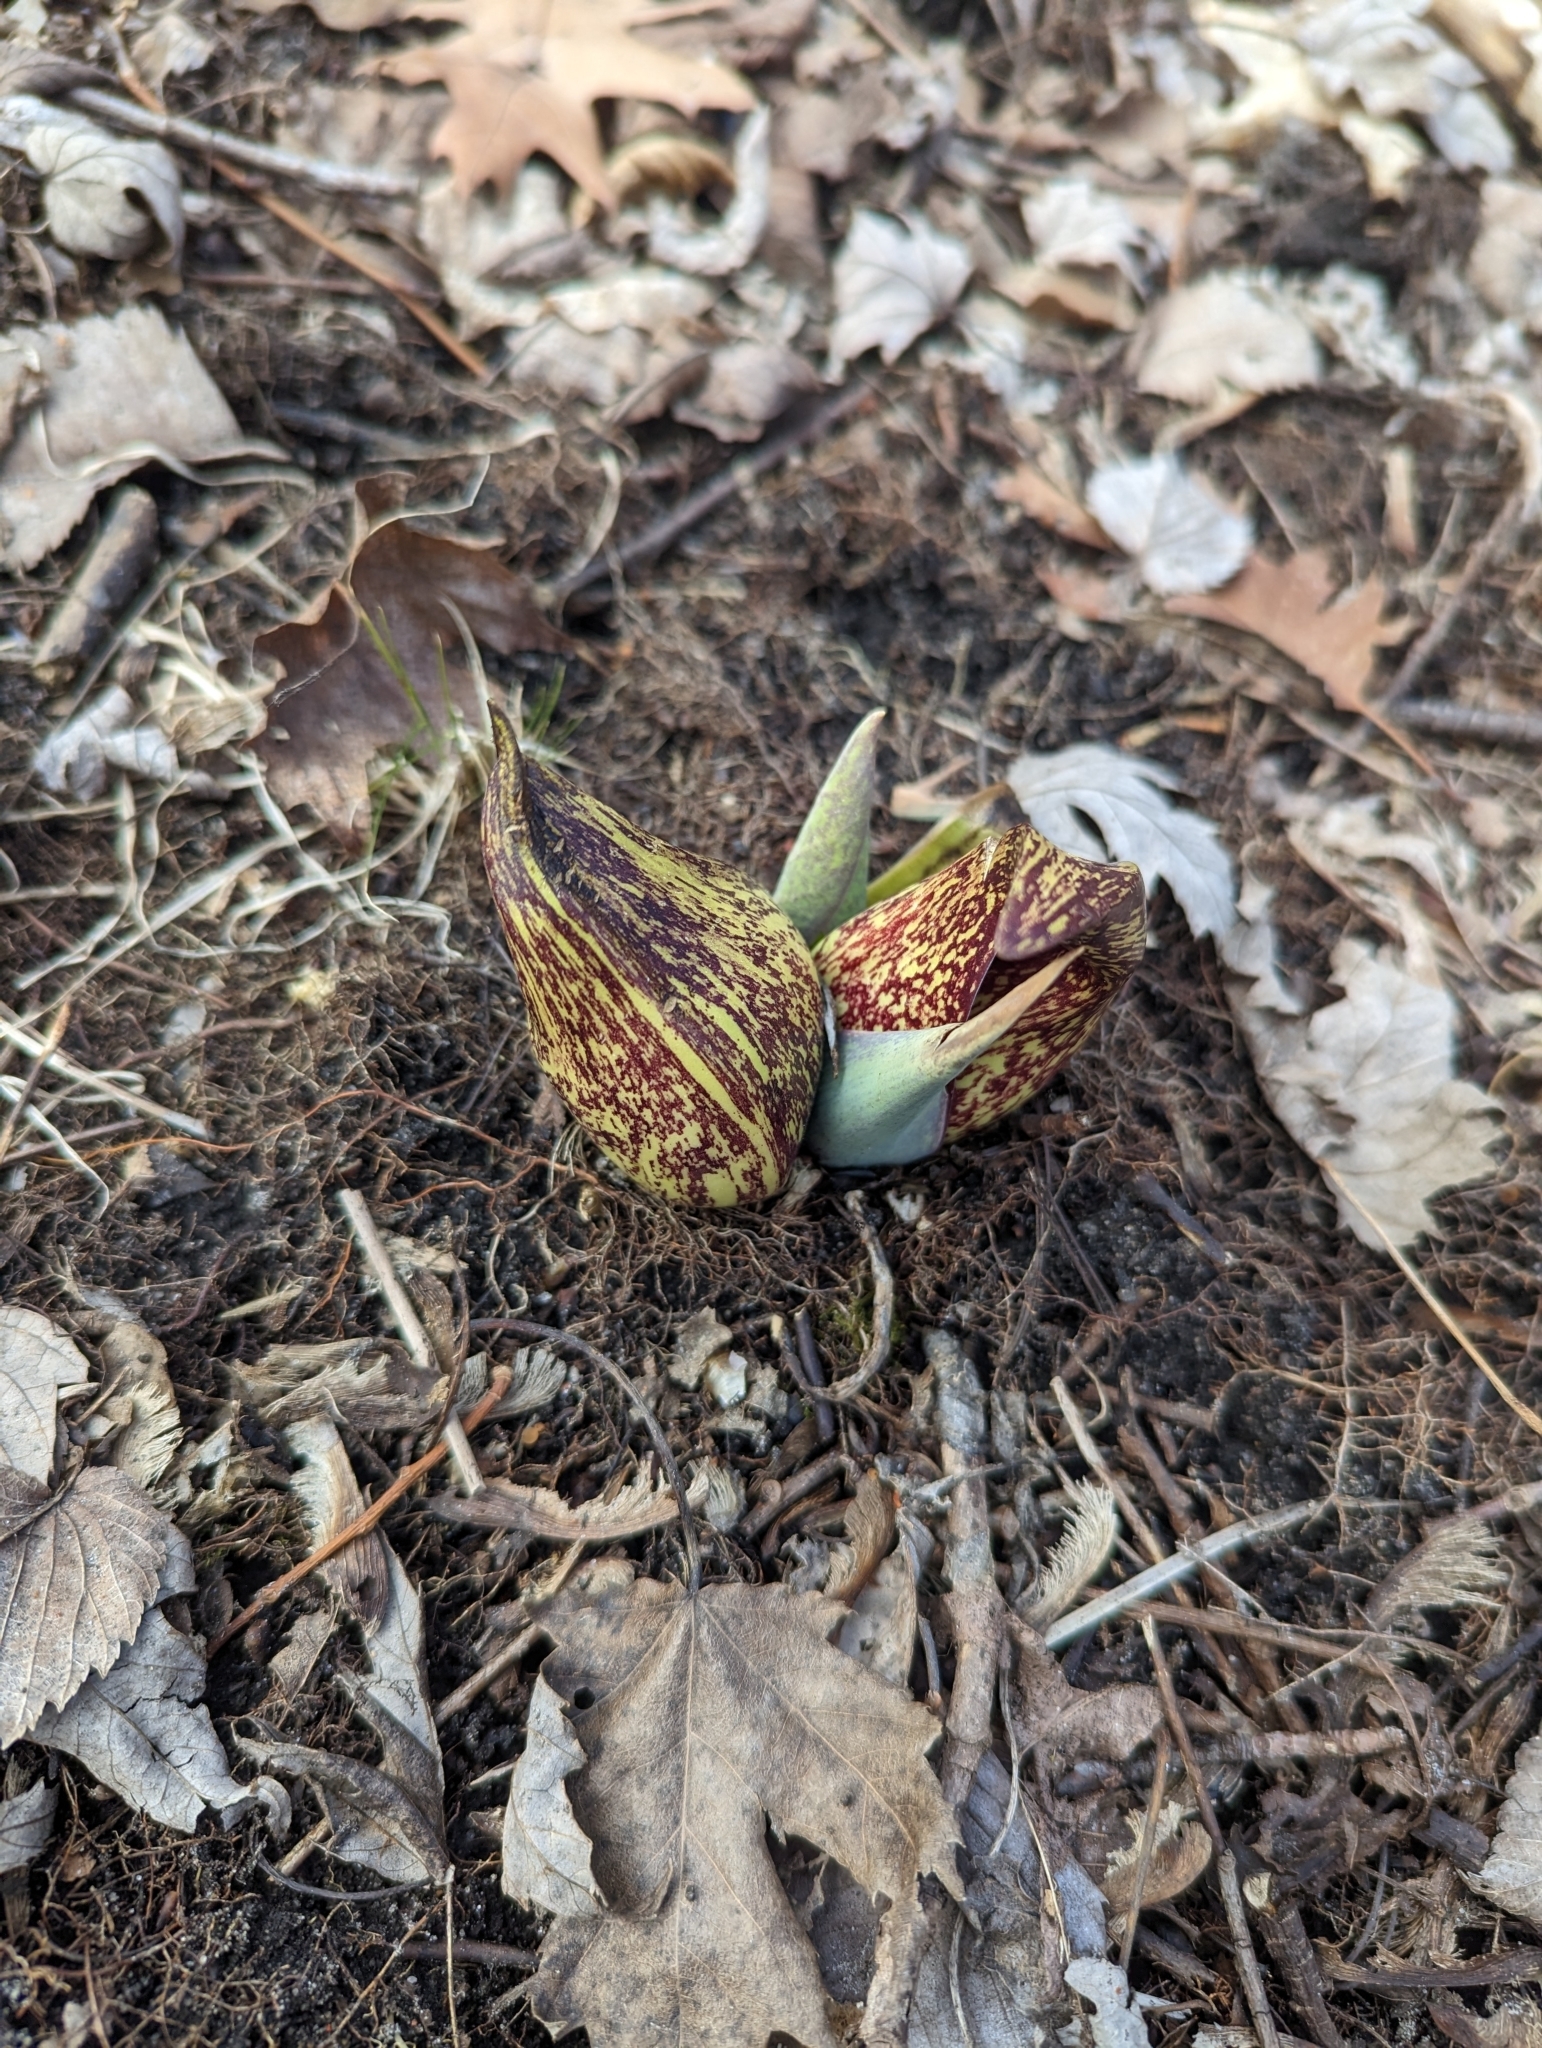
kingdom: Plantae
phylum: Tracheophyta
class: Liliopsida
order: Alismatales
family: Araceae
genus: Symplocarpus
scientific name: Symplocarpus foetidus
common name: Eastern skunk cabbage
